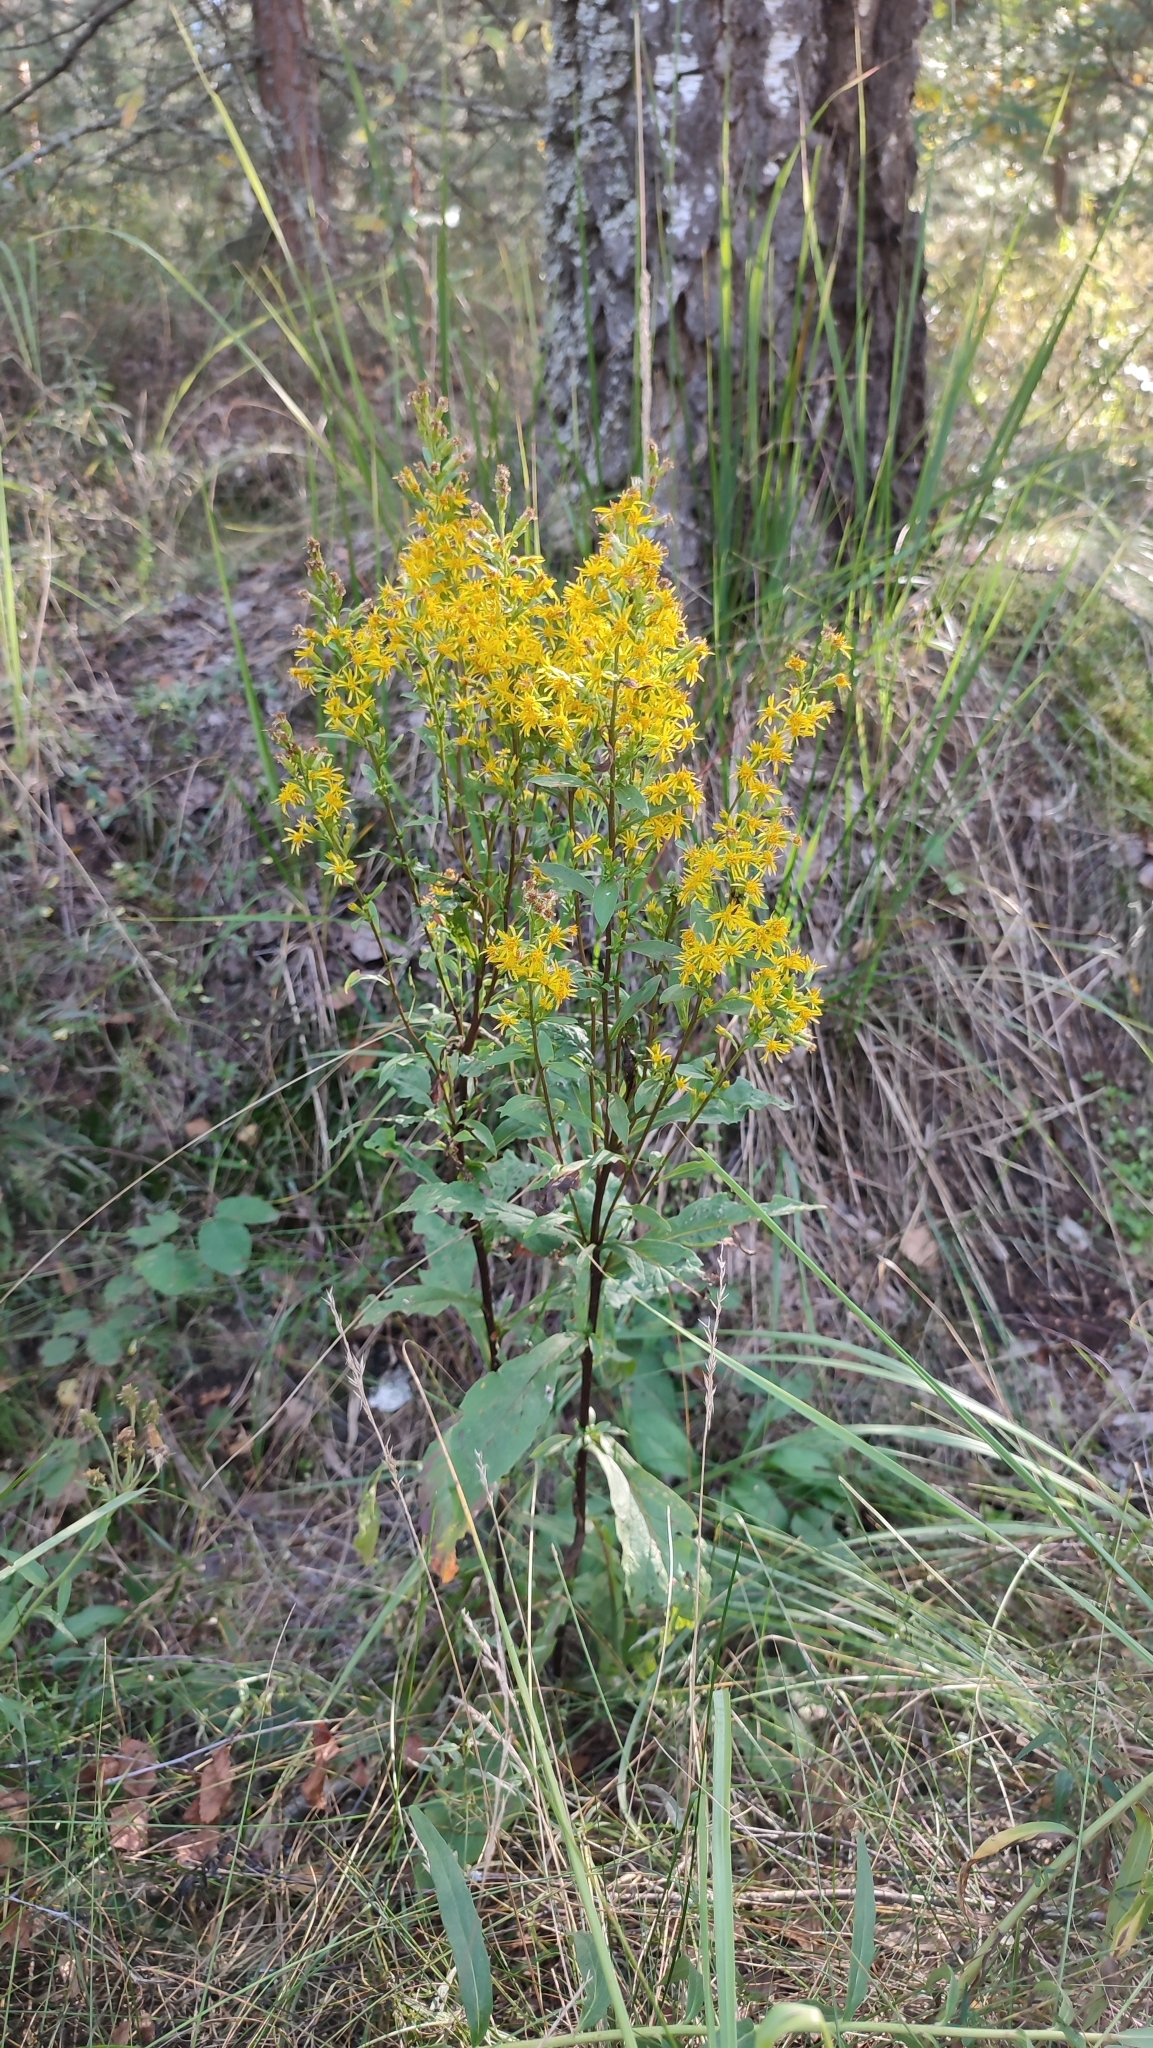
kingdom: Plantae
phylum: Tracheophyta
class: Magnoliopsida
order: Asterales
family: Asteraceae
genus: Solidago
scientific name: Solidago virgaurea
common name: Goldenrod
